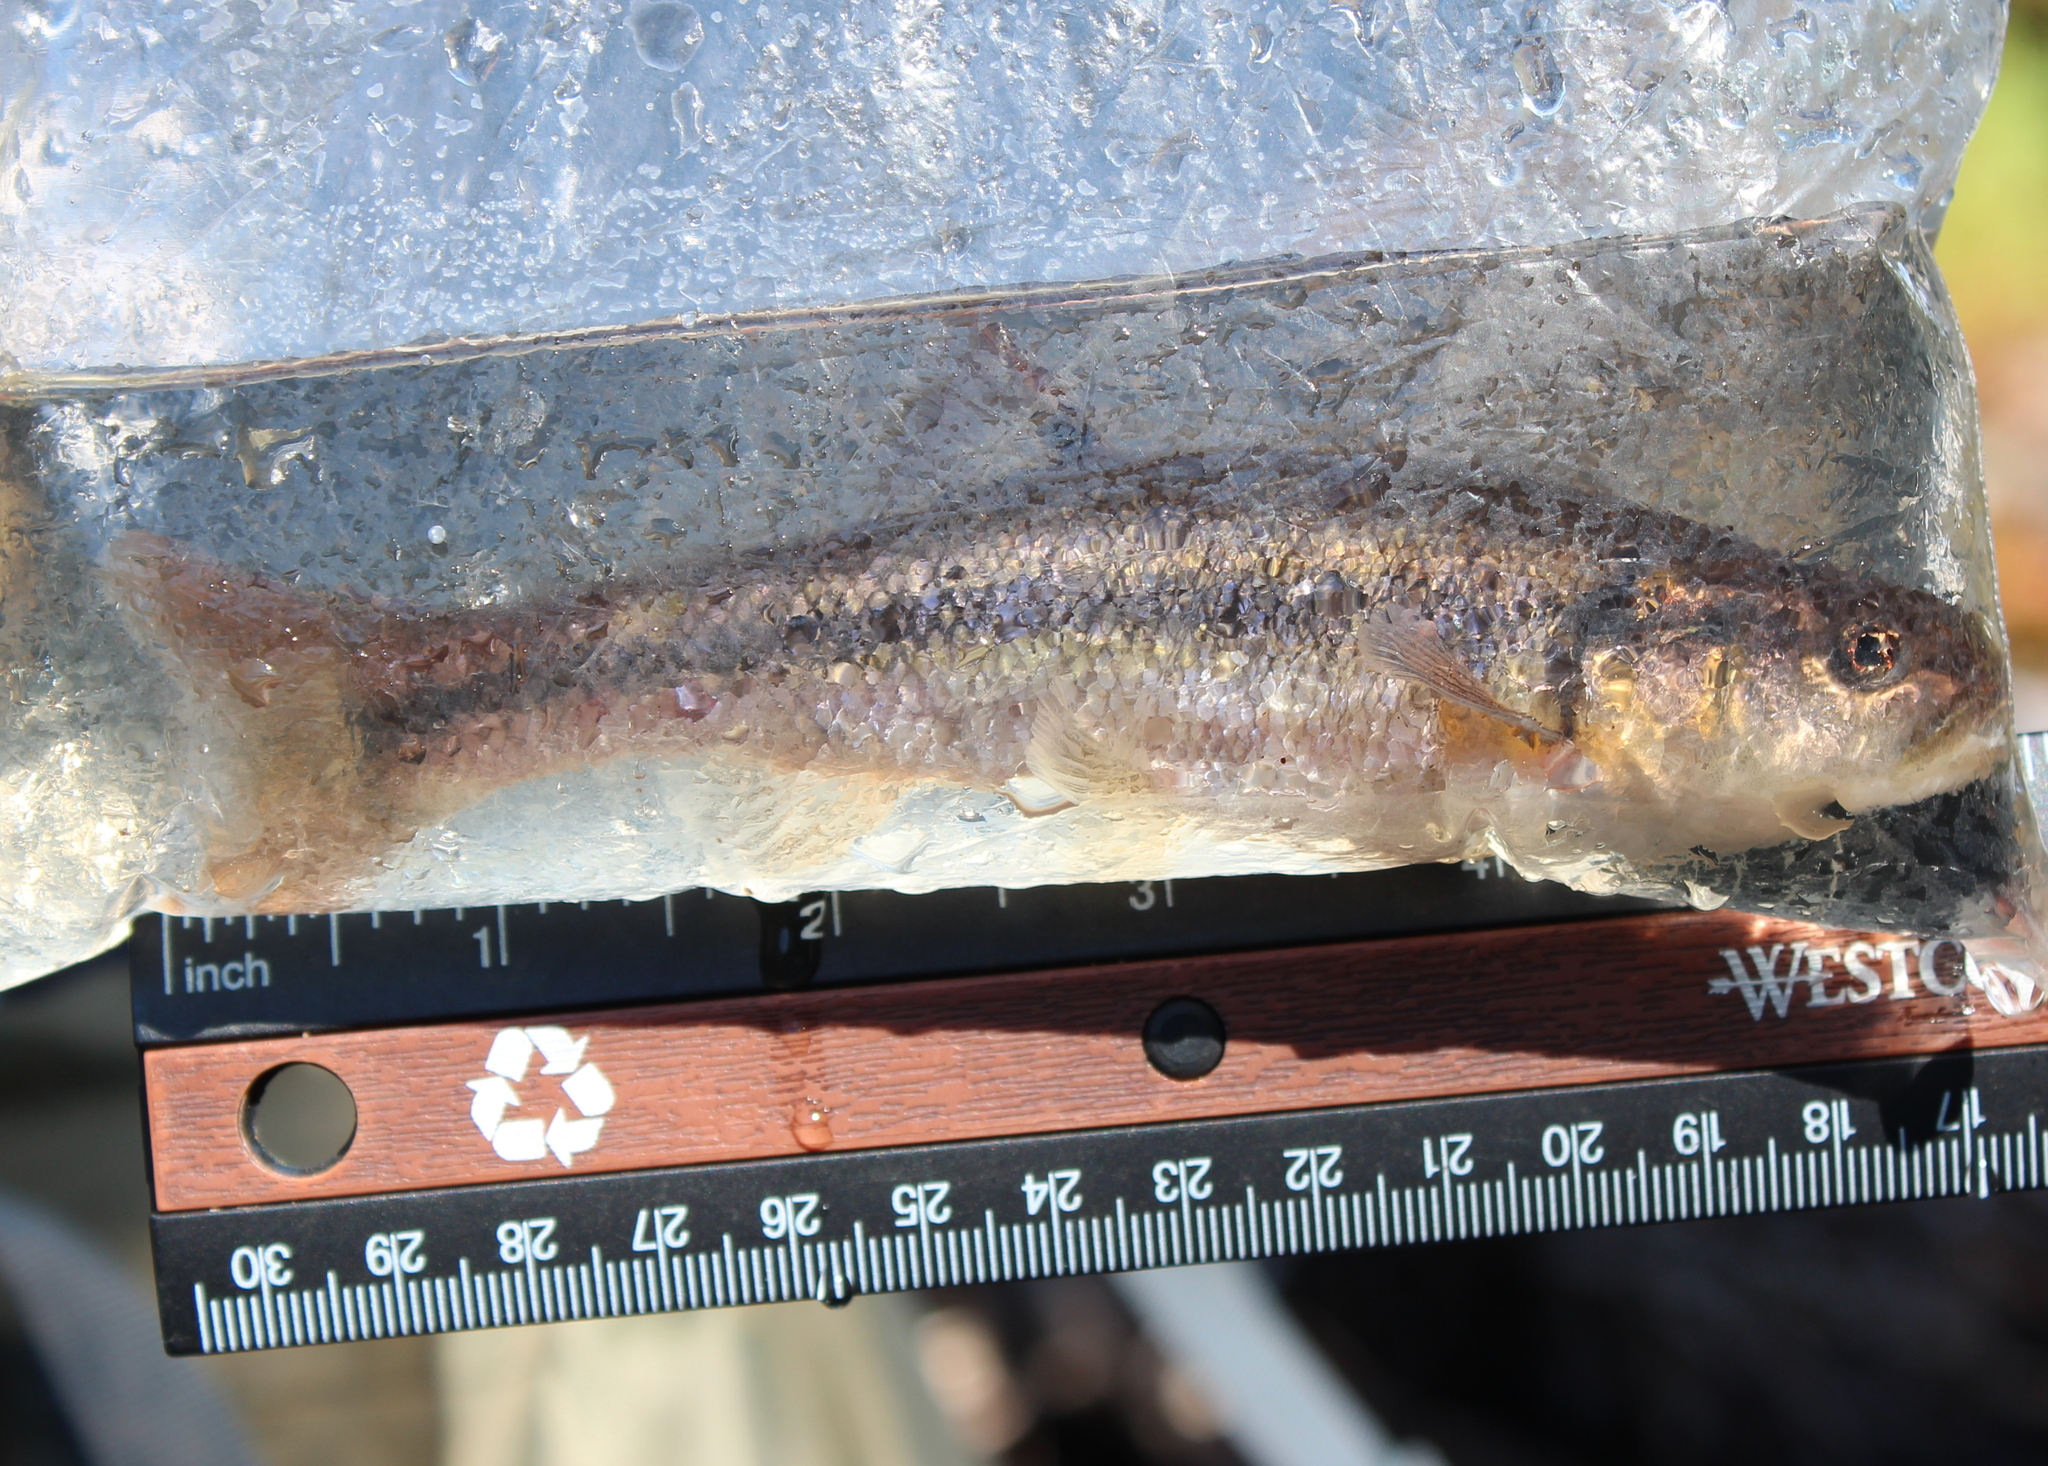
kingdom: Animalia
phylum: Chordata
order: Cypriniformes
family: Cyprinidae
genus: Semotilus
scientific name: Semotilus atromaculatus
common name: Creek chub
